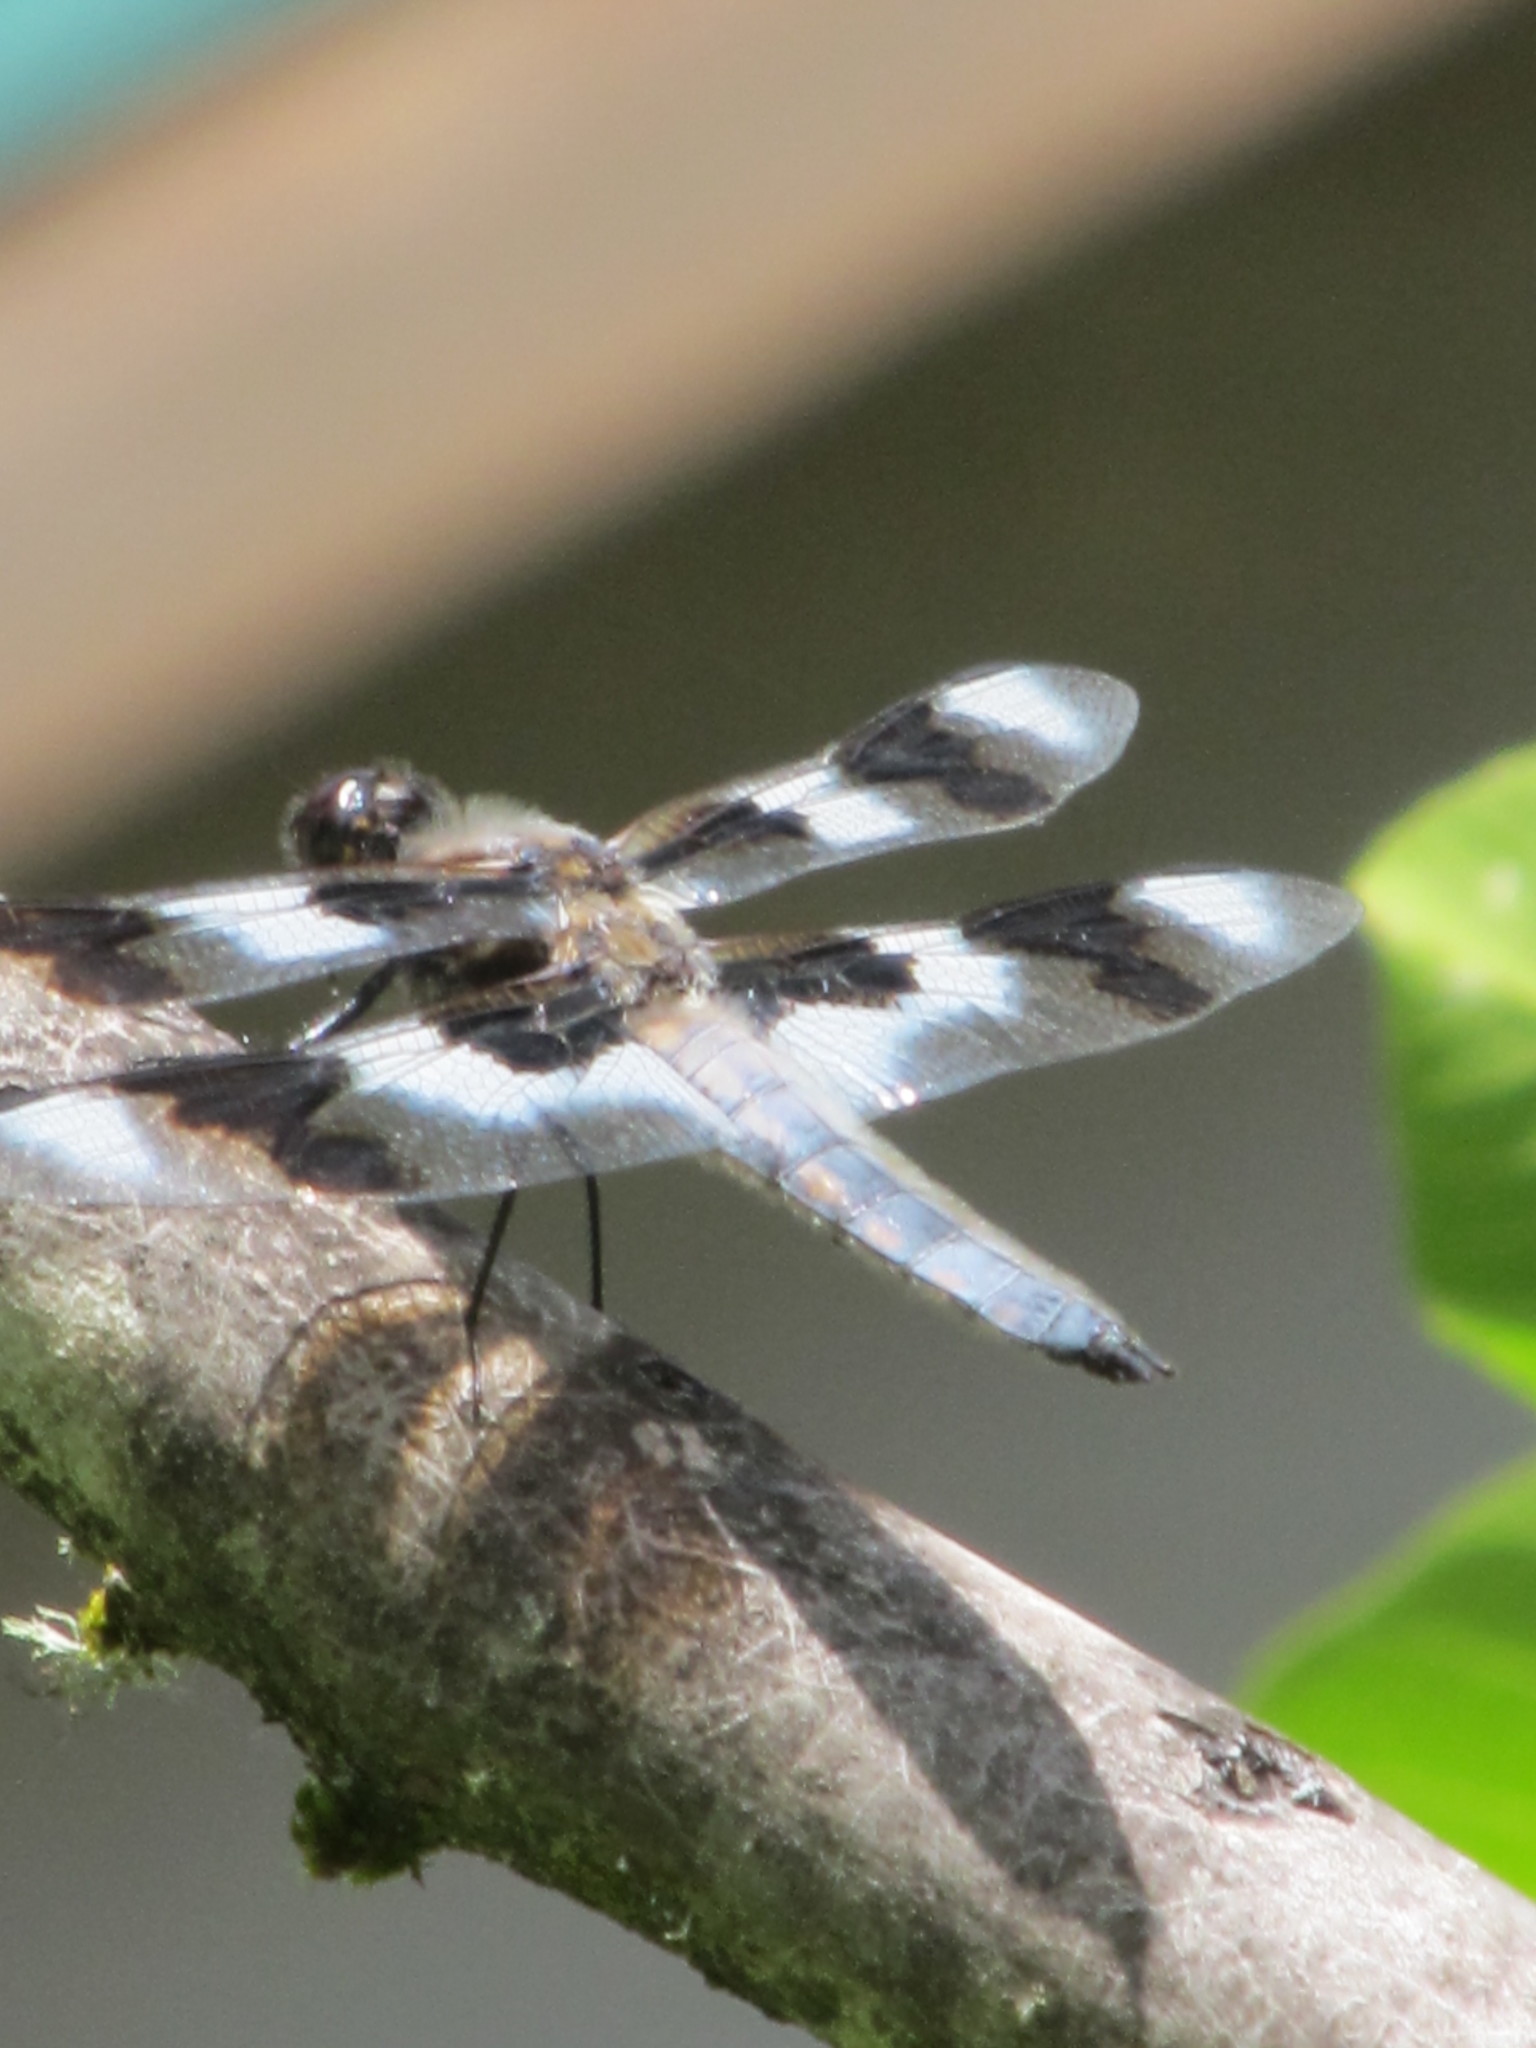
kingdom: Animalia
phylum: Arthropoda
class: Insecta
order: Odonata
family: Libellulidae
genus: Libellula
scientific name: Libellula forensis
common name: Eight-spotted skimmer
